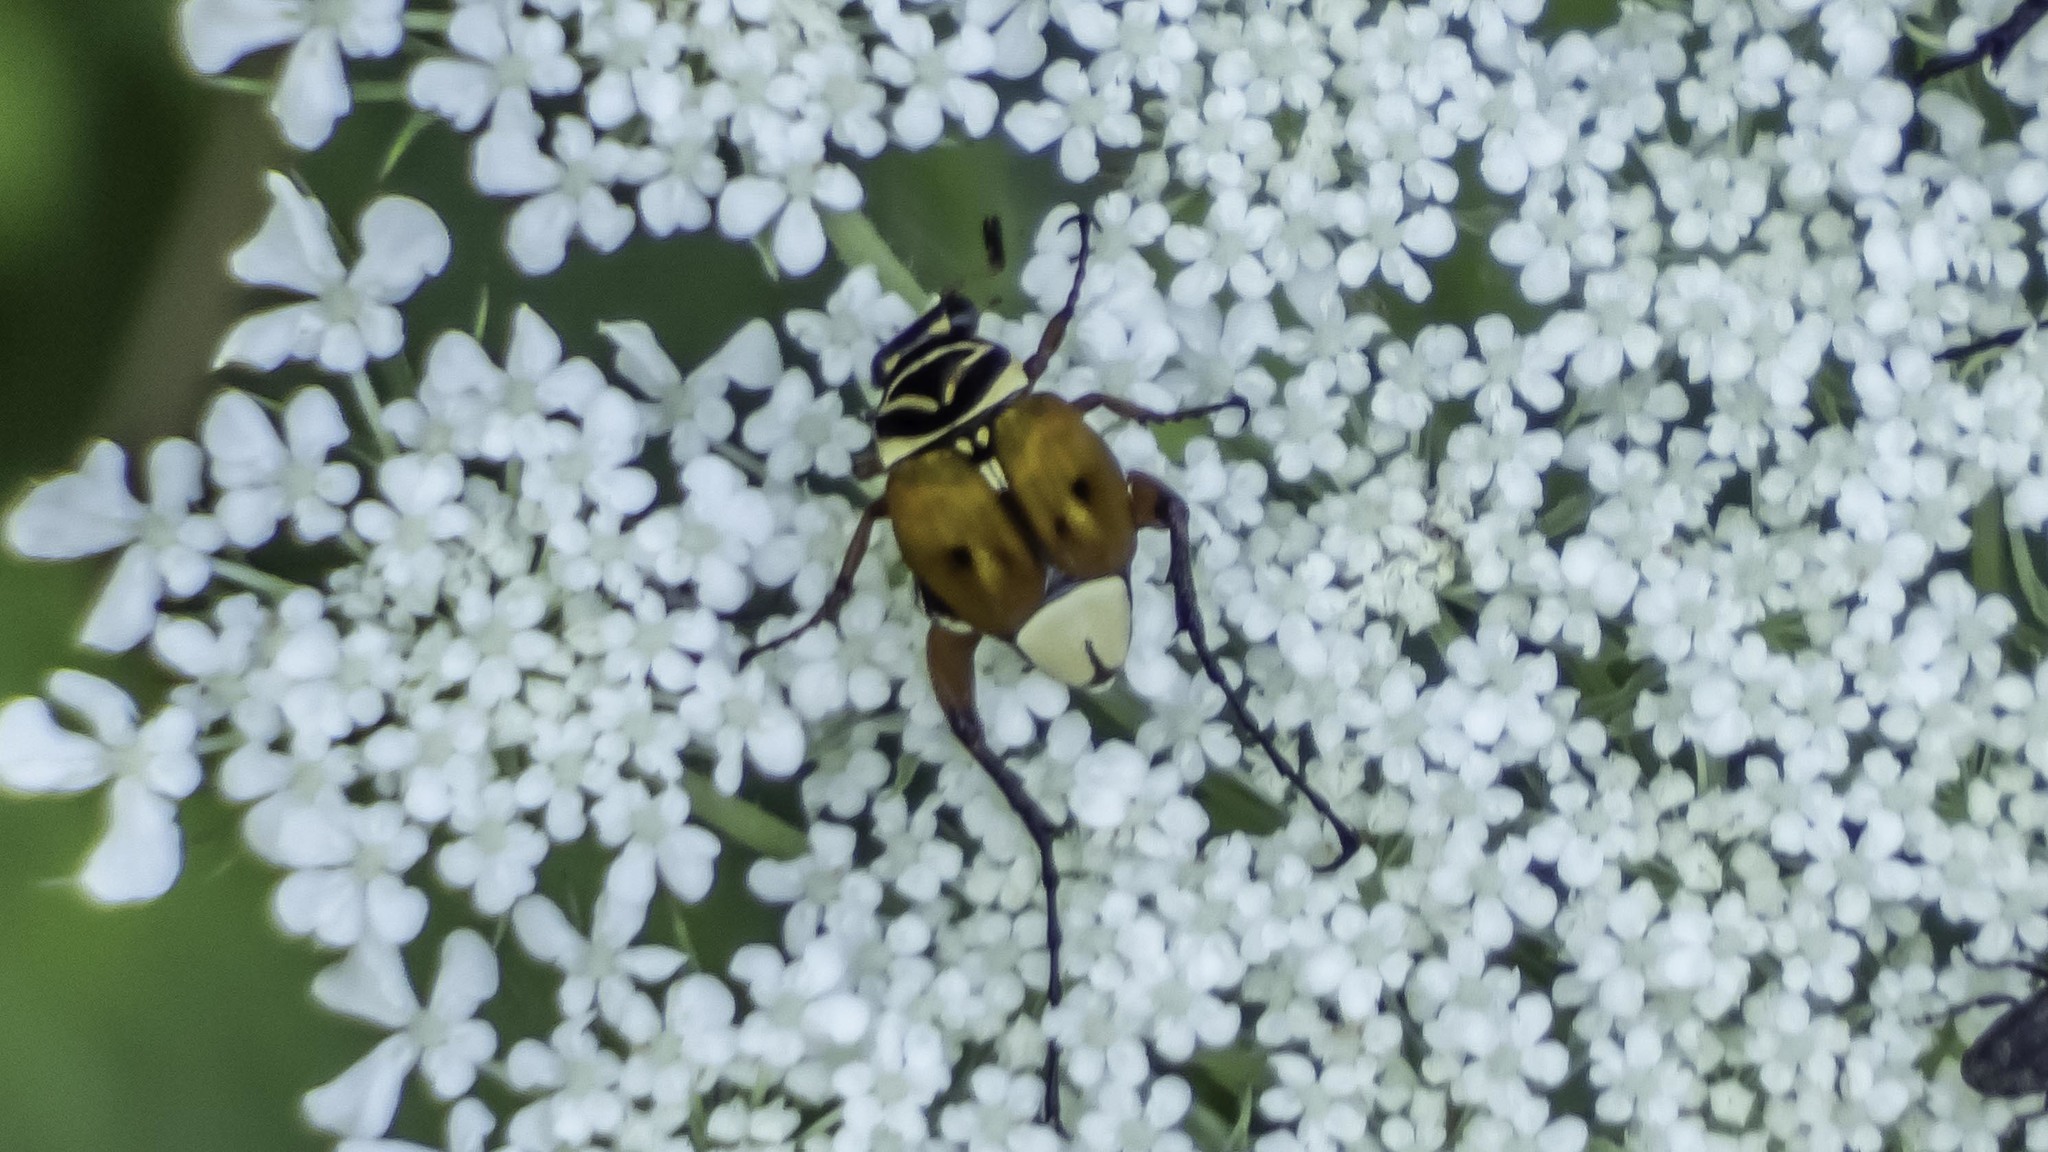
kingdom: Animalia
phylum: Arthropoda
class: Insecta
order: Coleoptera
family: Scarabaeidae
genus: Trigonopeltastes
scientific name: Trigonopeltastes delta
